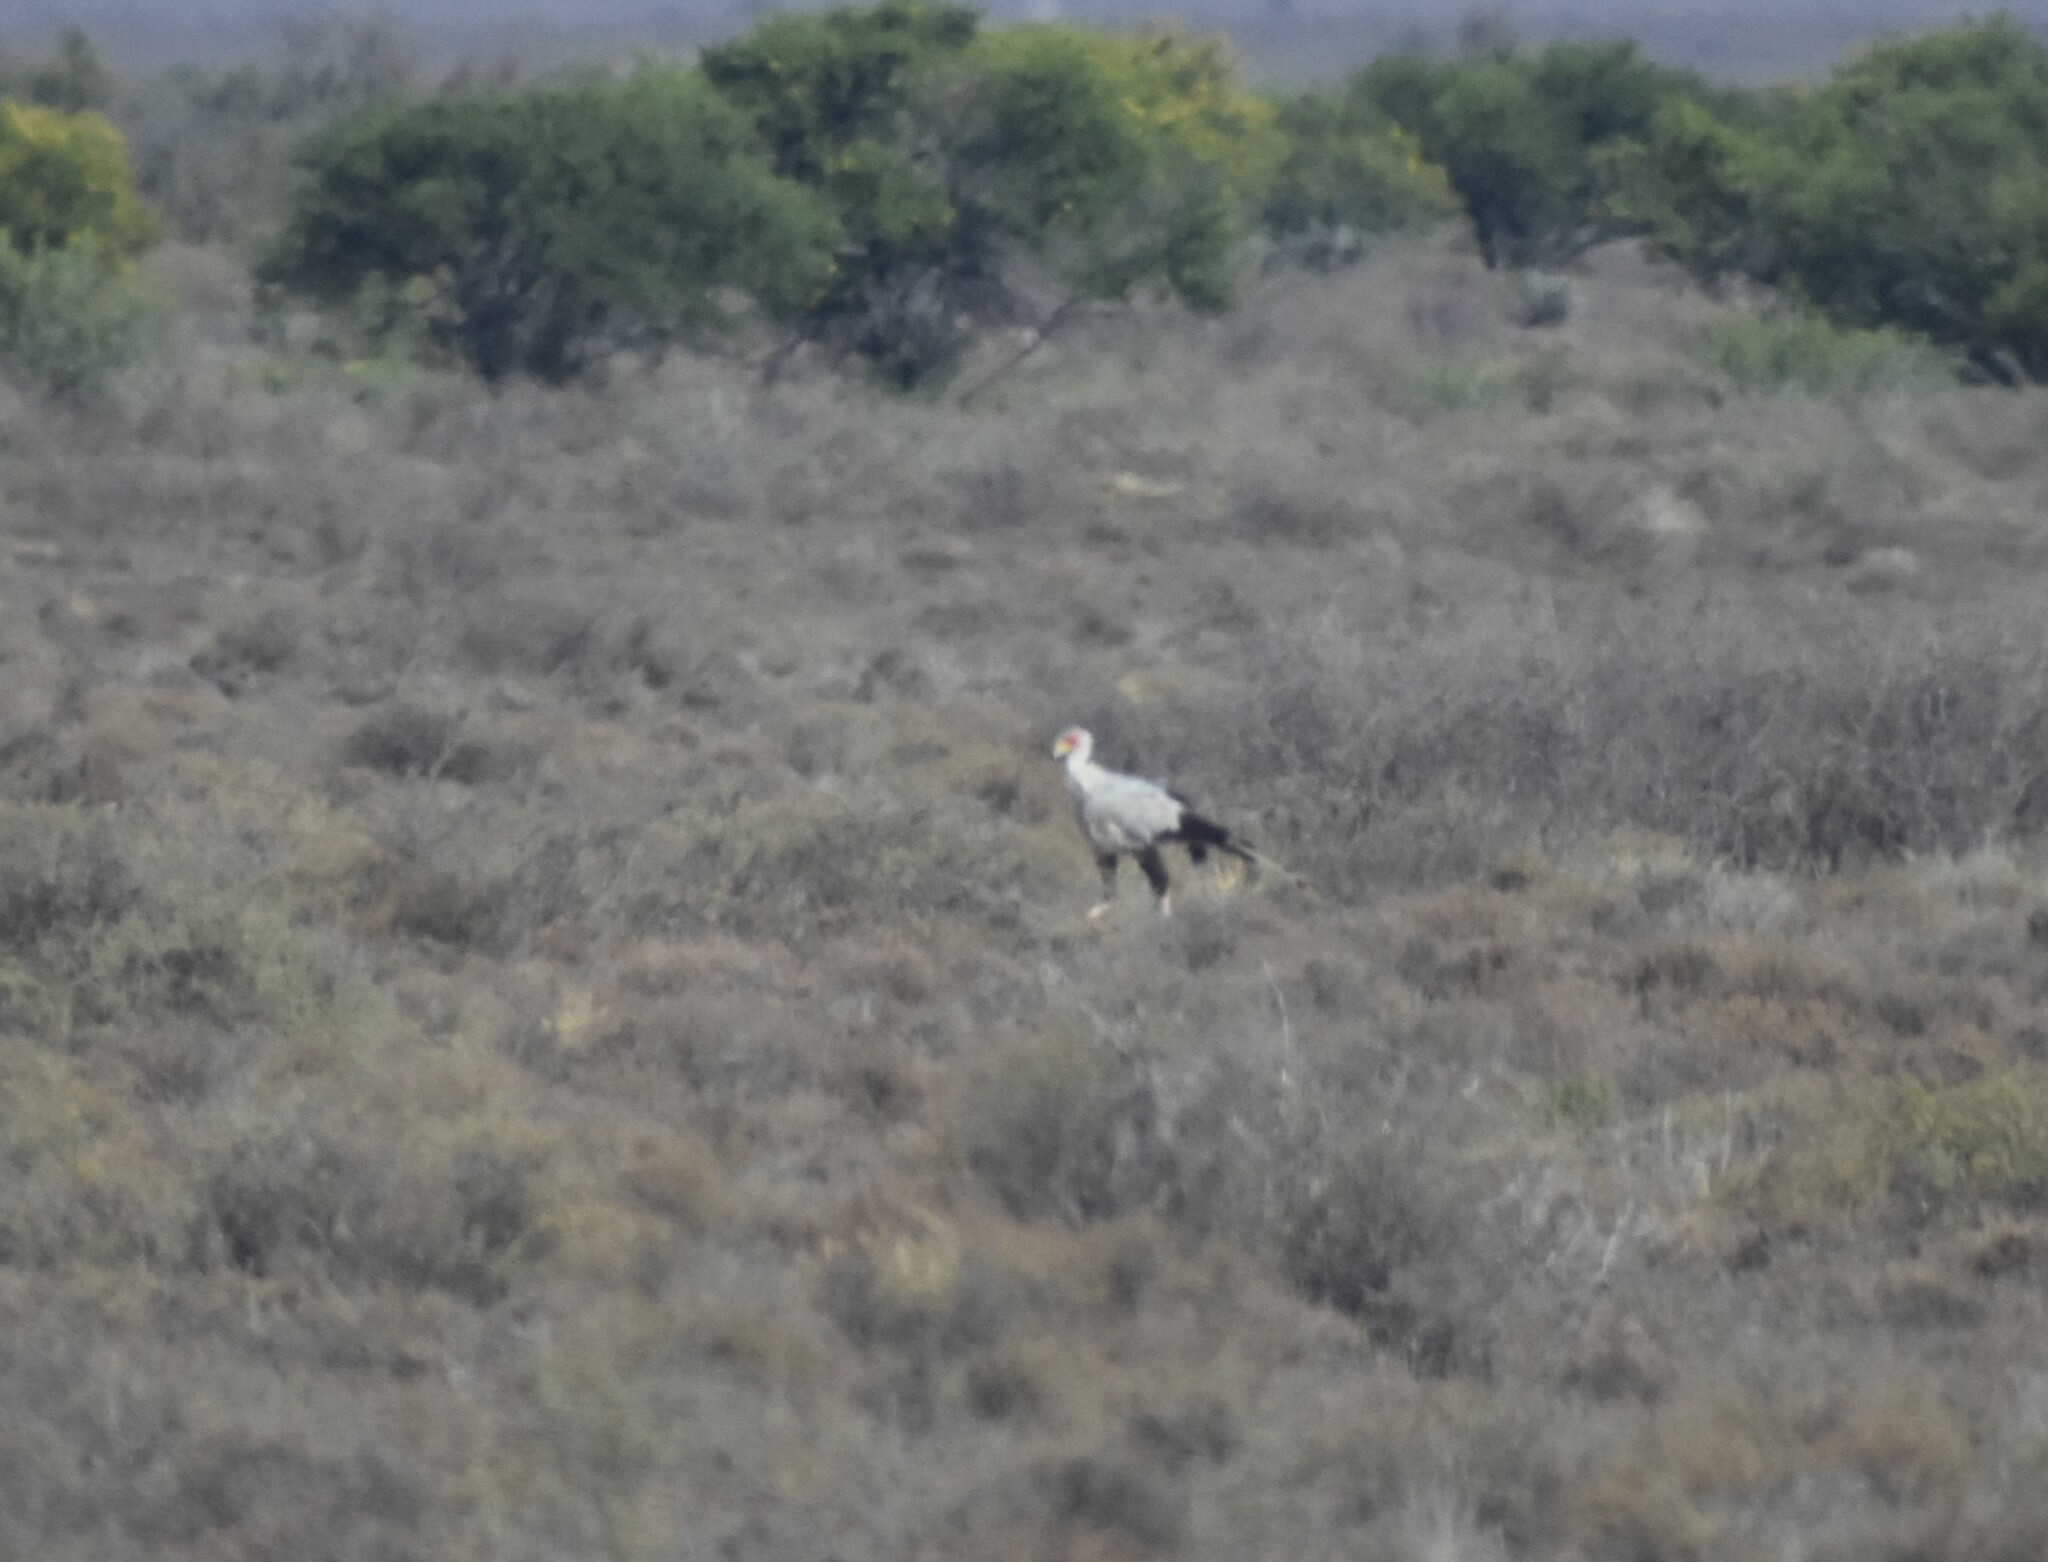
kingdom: Animalia
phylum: Chordata
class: Aves
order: Accipitriformes
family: Sagittariidae
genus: Sagittarius
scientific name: Sagittarius serpentarius
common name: Secretarybird
